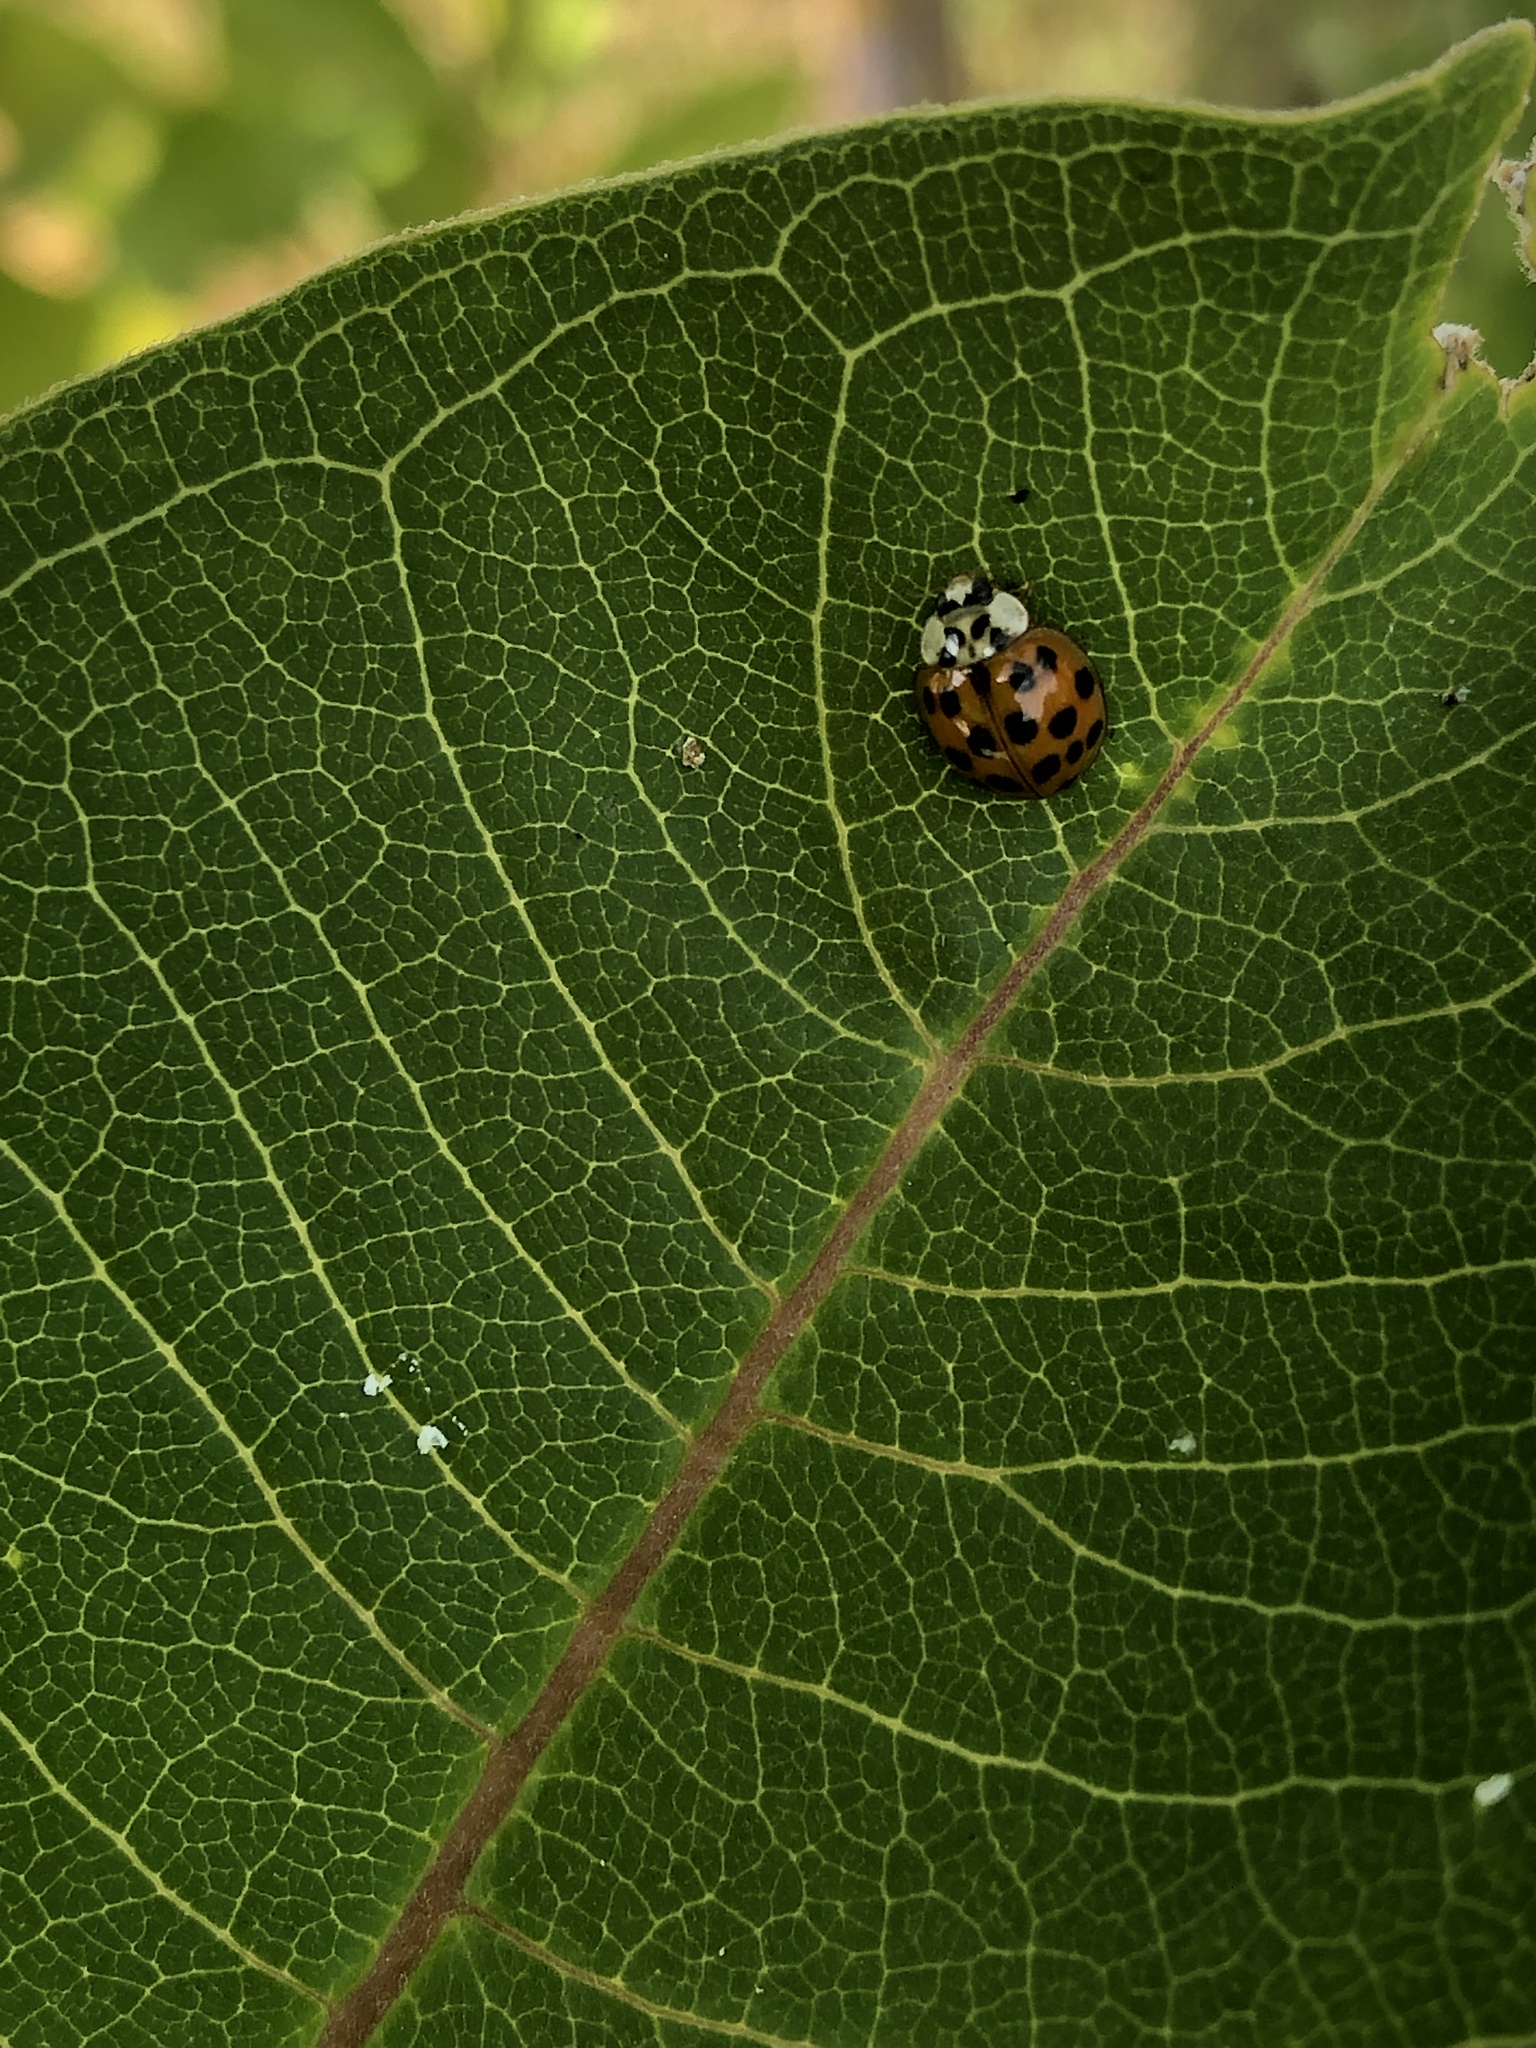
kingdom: Animalia
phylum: Arthropoda
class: Insecta
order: Coleoptera
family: Coccinellidae
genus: Harmonia
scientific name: Harmonia axyridis
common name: Harlequin ladybird
